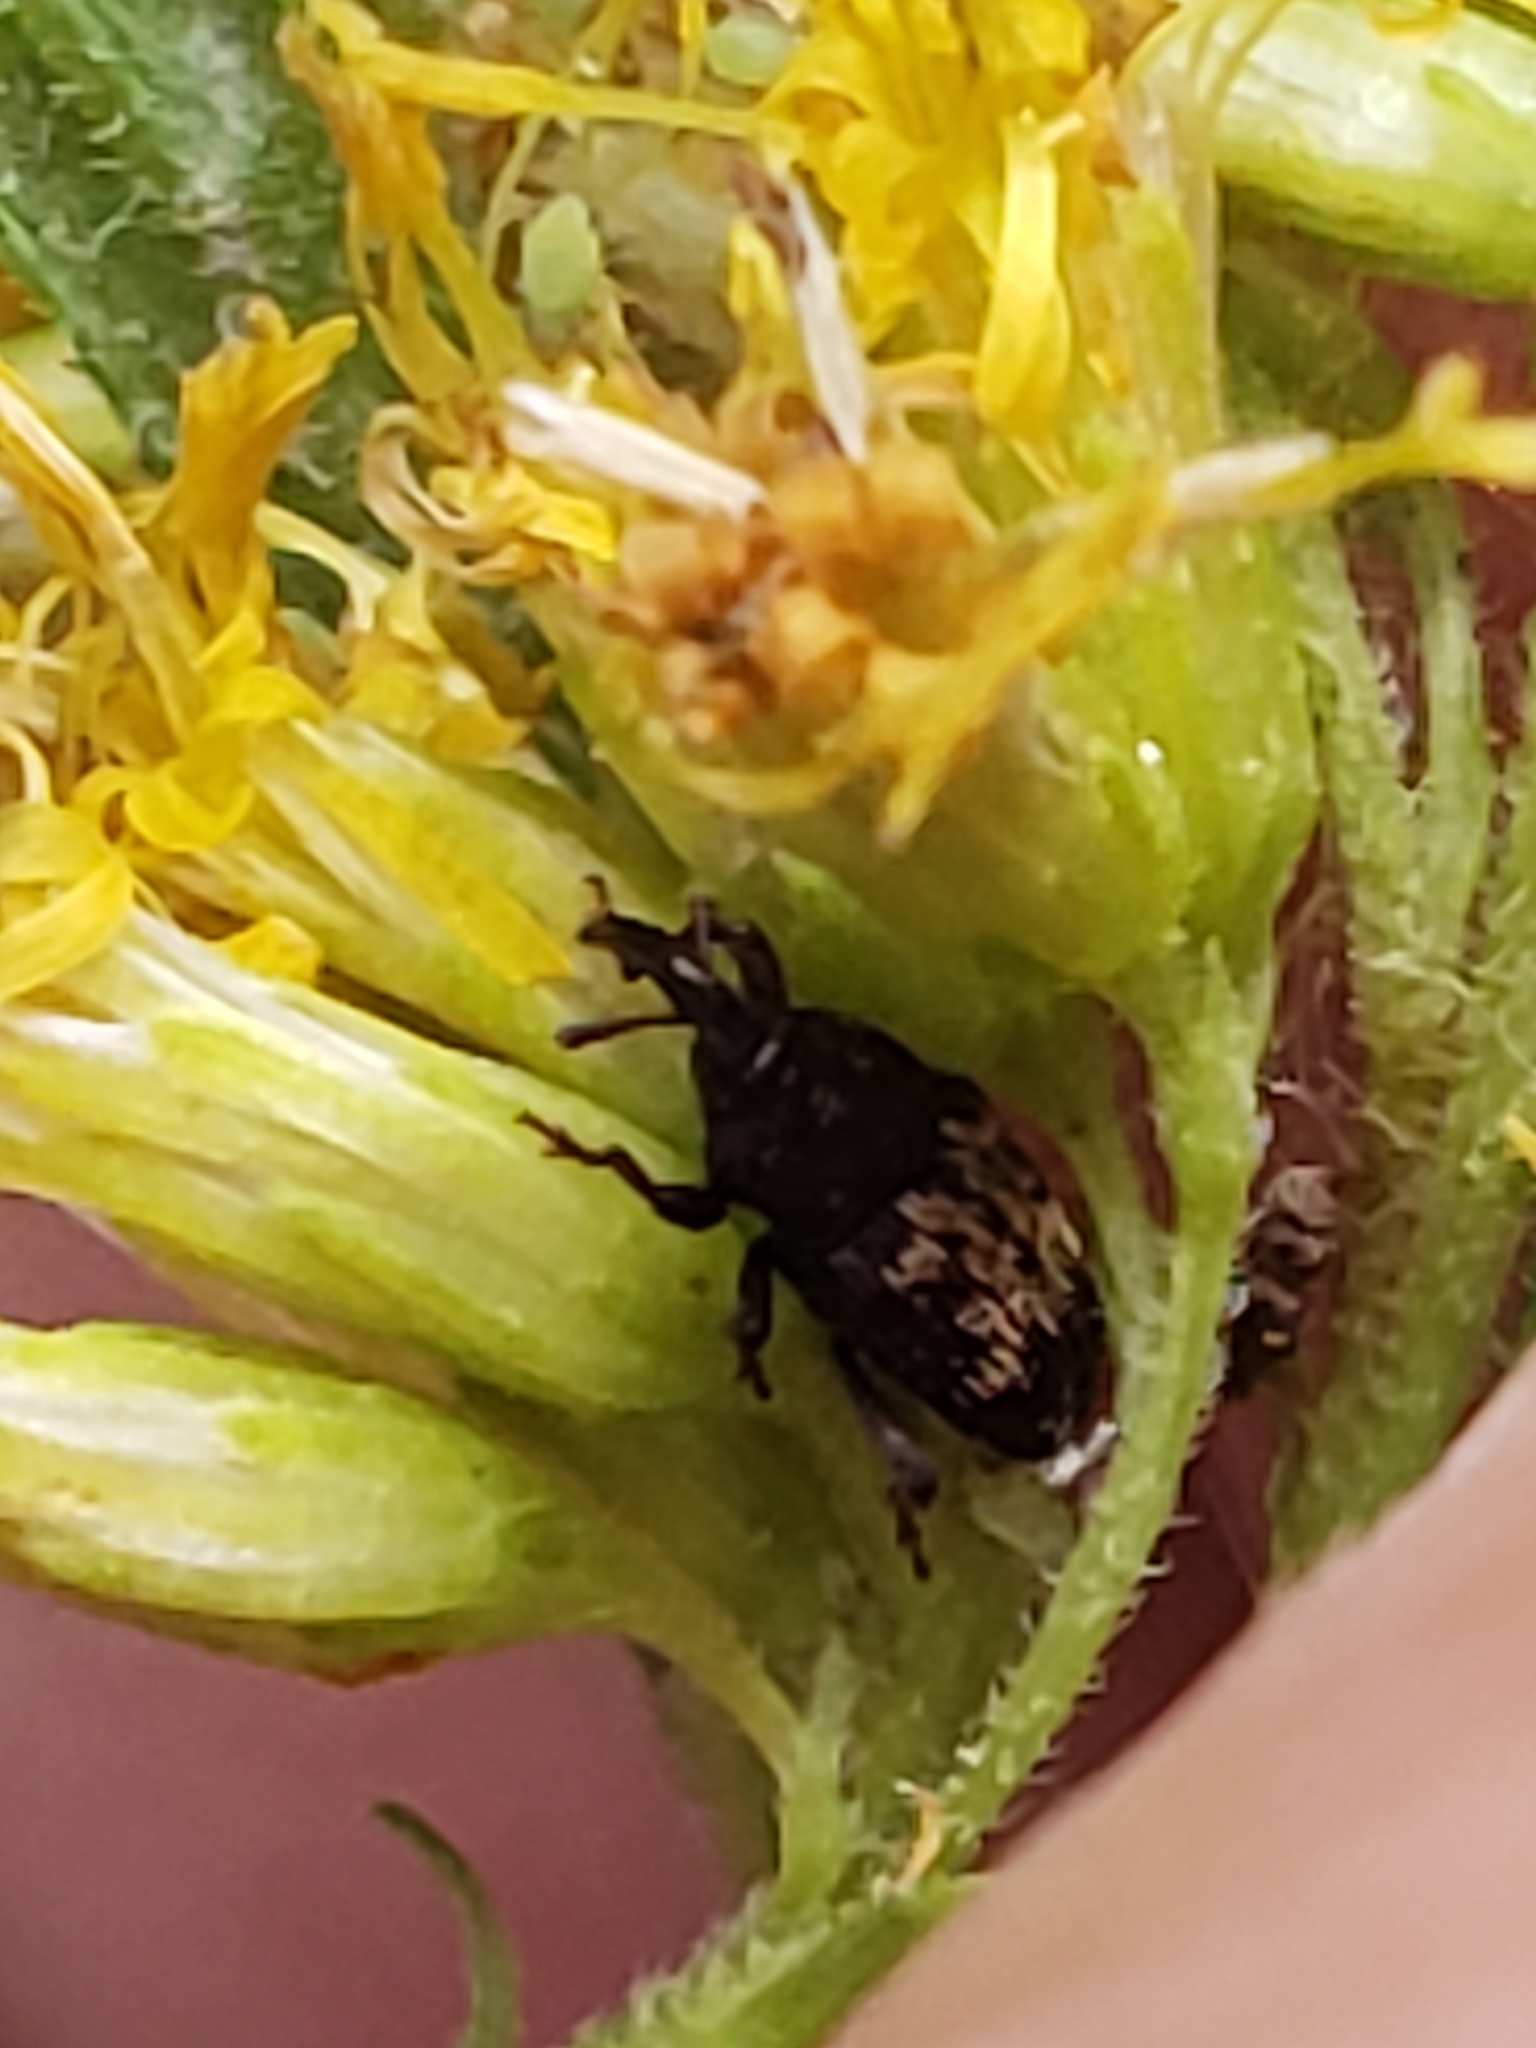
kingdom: Animalia
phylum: Arthropoda
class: Insecta
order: Coleoptera
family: Curculionidae
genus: Glyptobaris
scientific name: Glyptobaris lecontei
